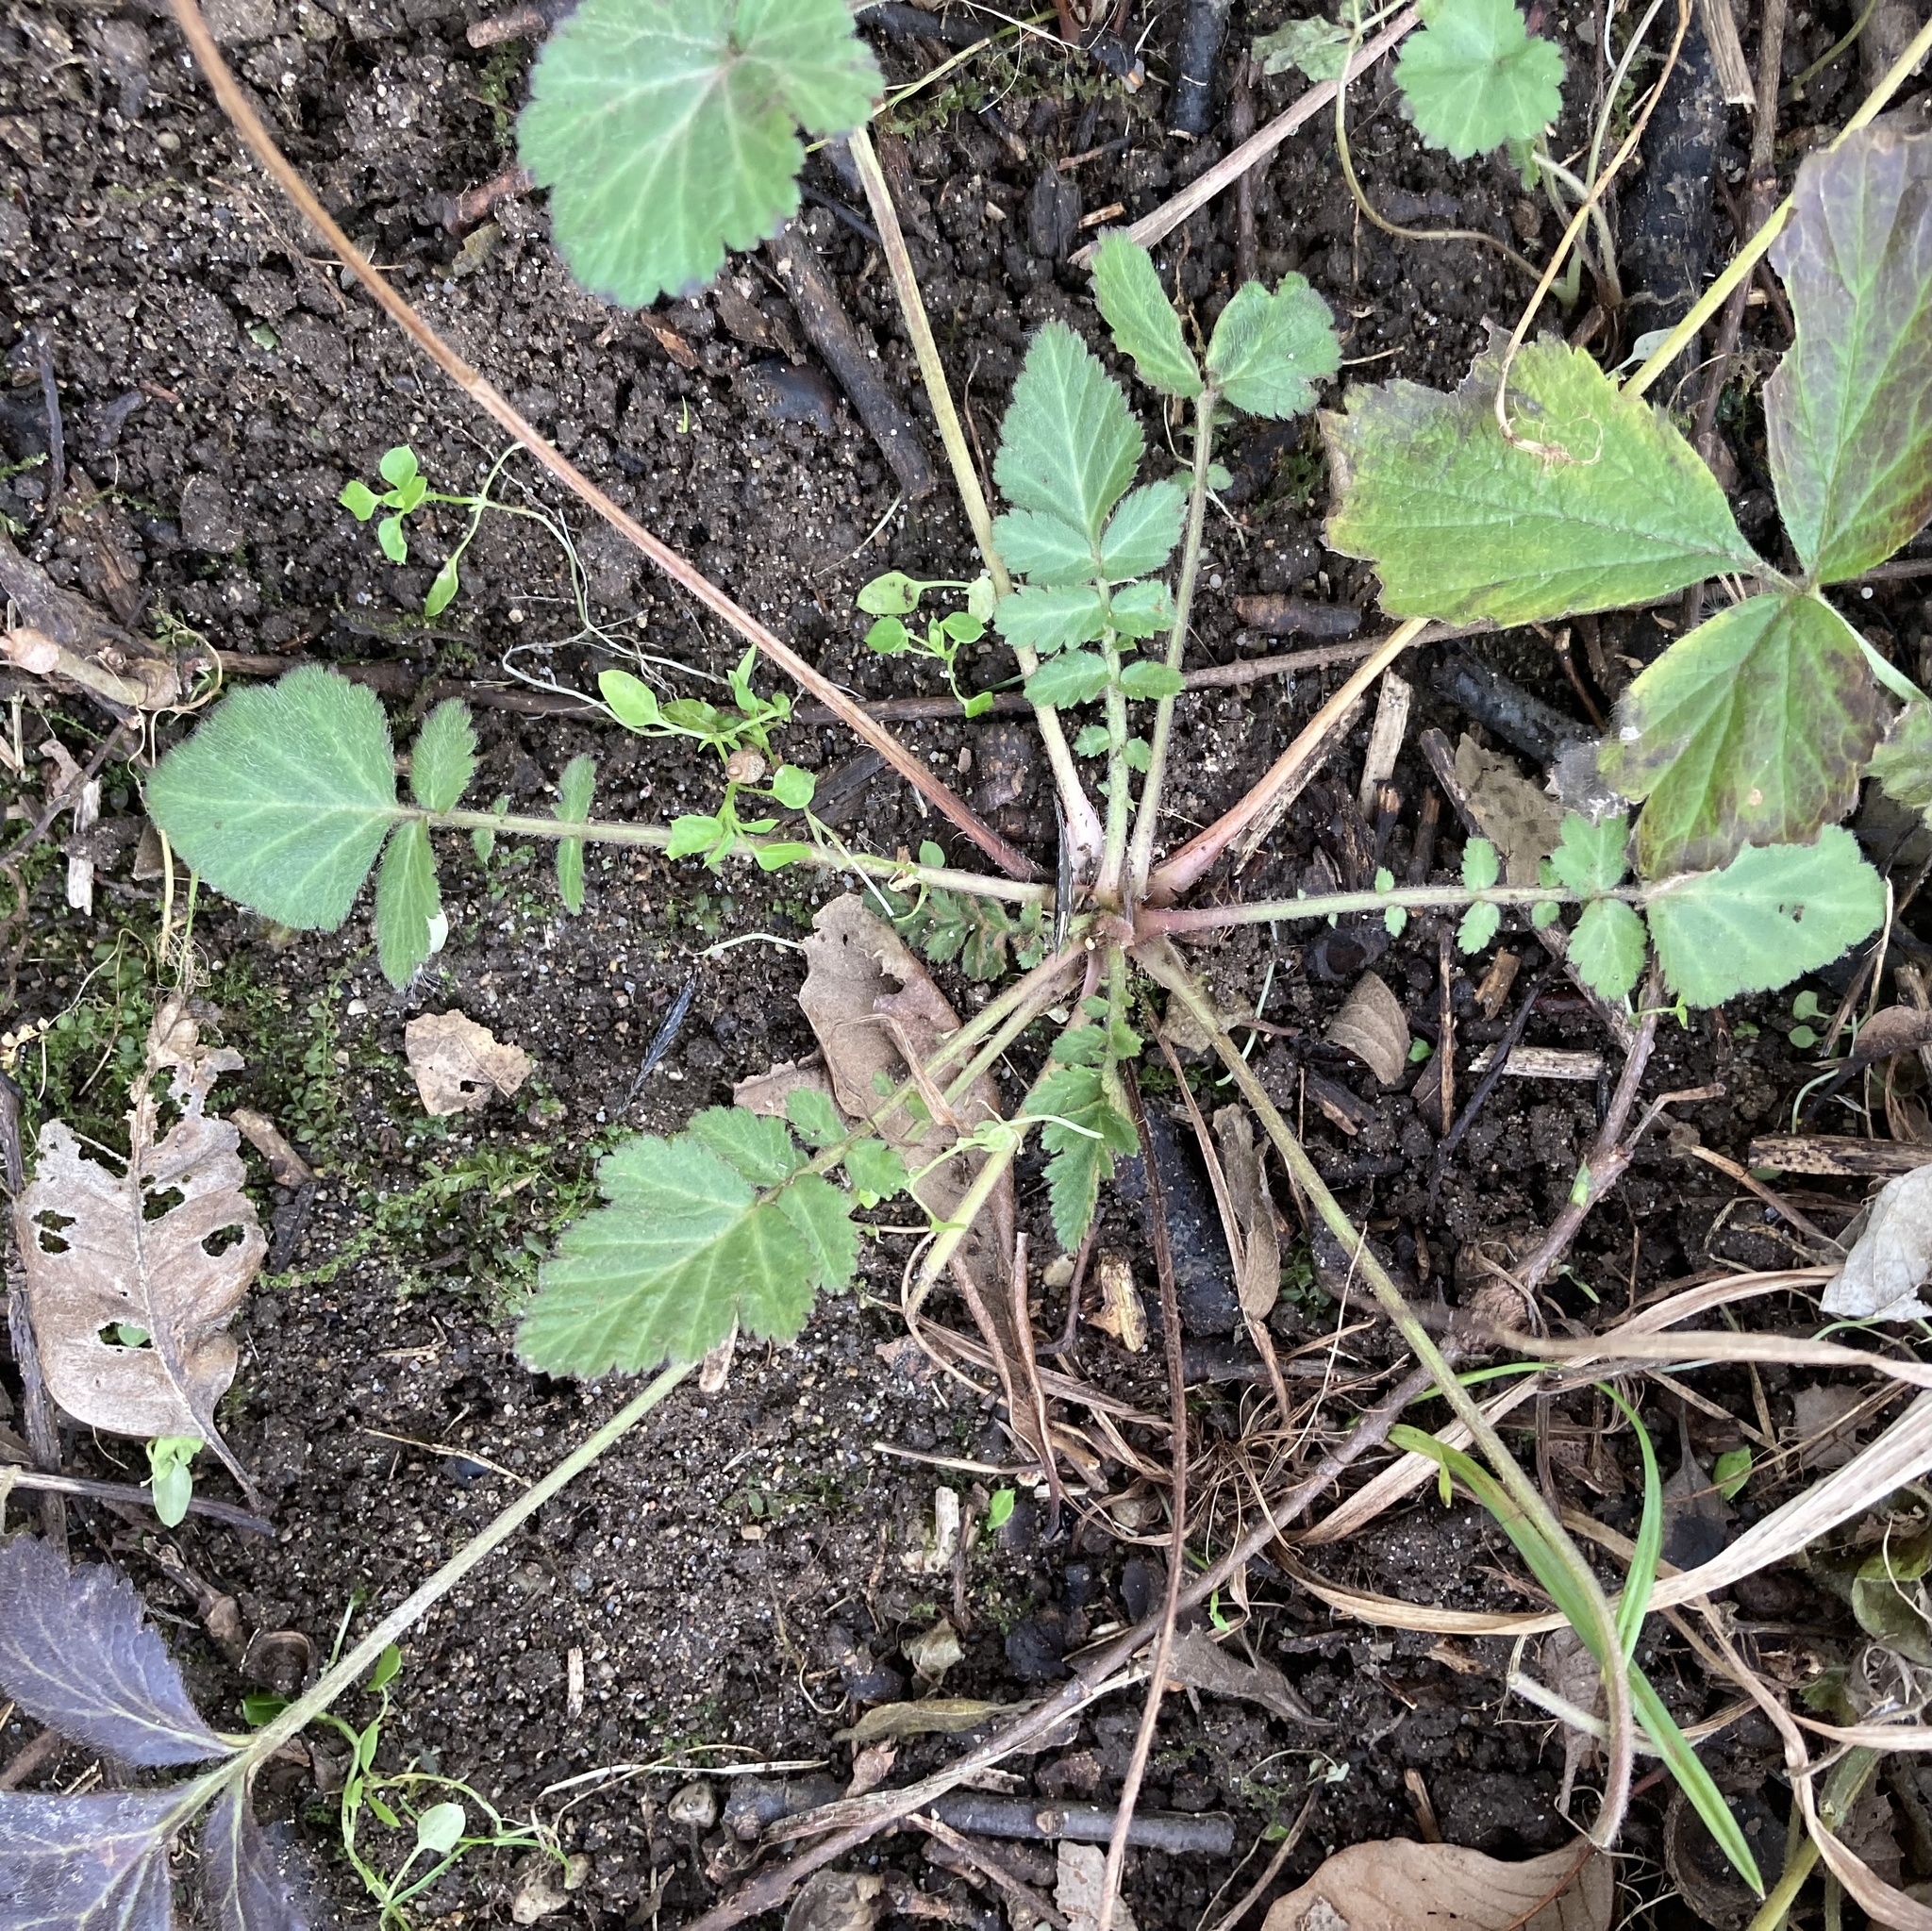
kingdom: Plantae
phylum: Tracheophyta
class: Magnoliopsida
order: Rosales
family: Rosaceae
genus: Geum
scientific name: Geum canadense
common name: White avens
